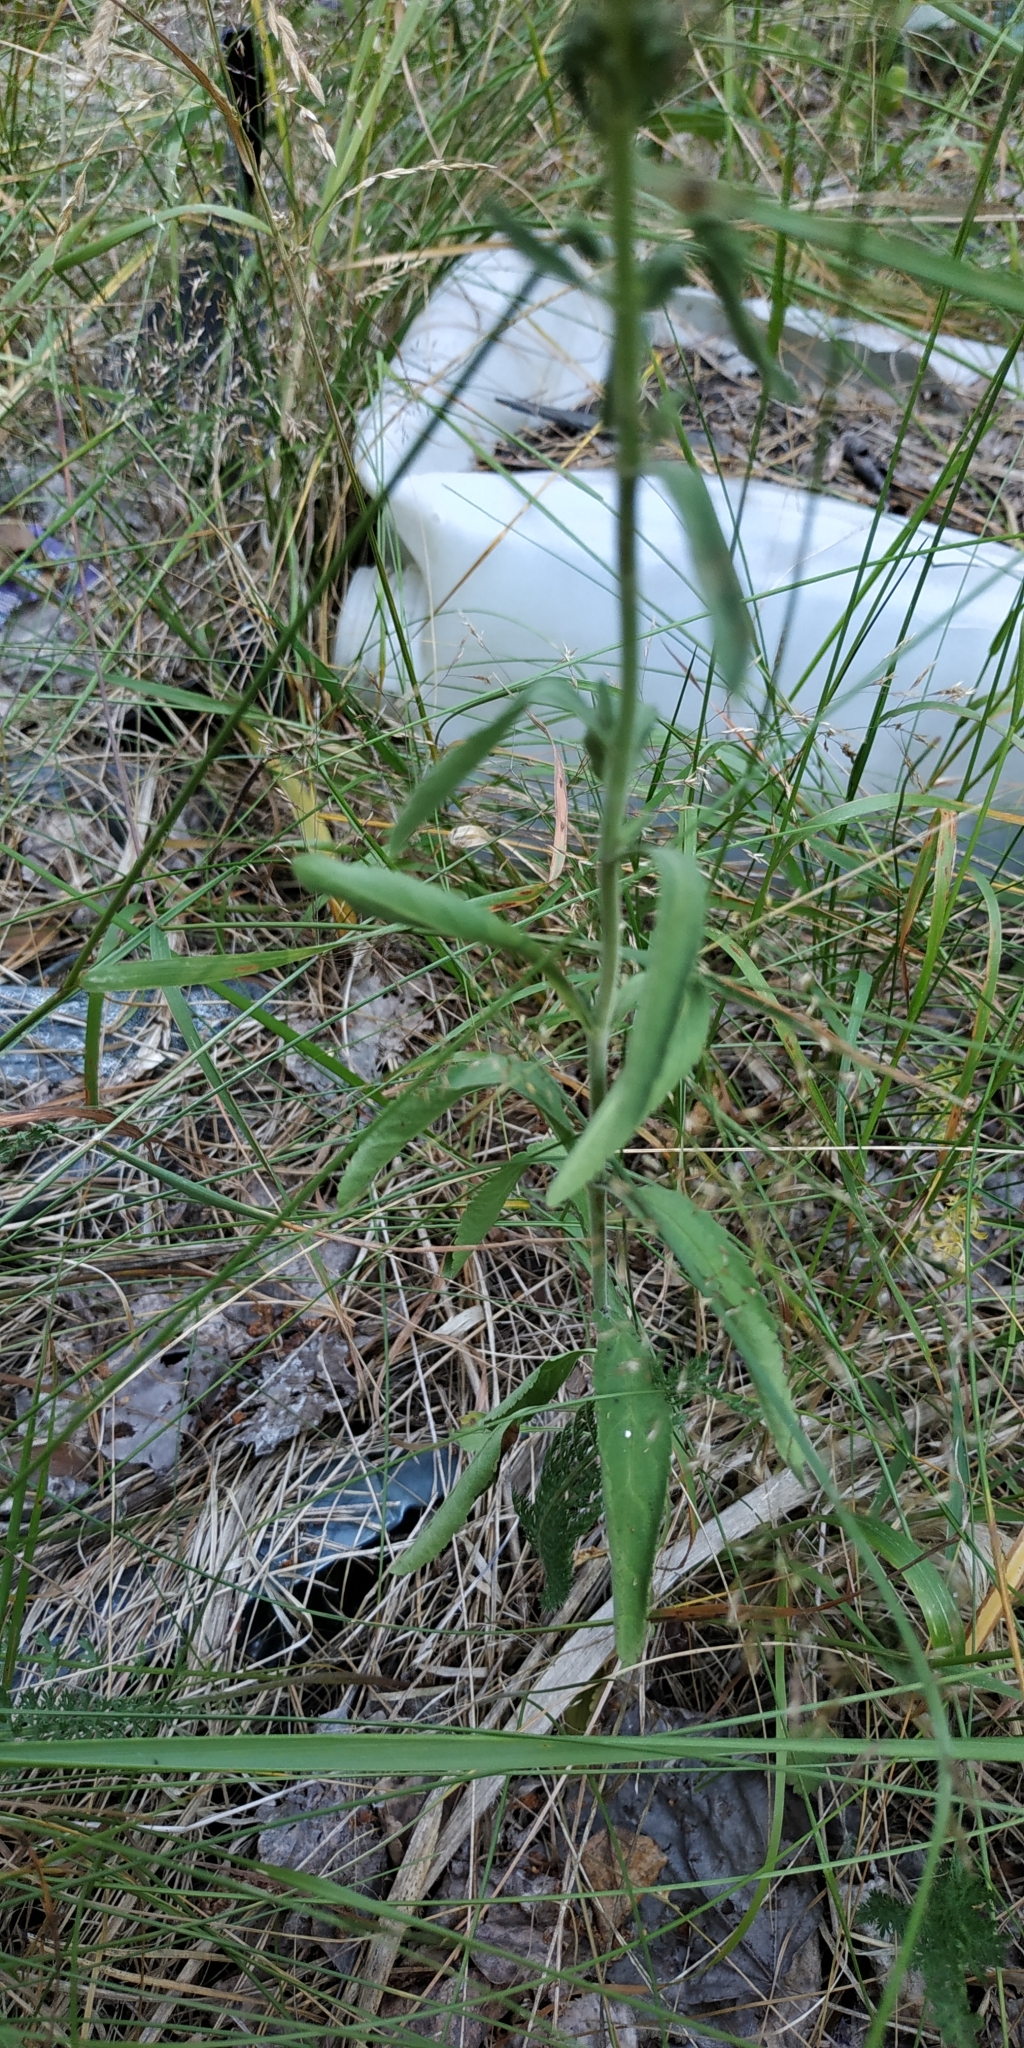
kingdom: Plantae
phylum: Tracheophyta
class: Magnoliopsida
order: Lamiales
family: Plantaginaceae
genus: Veronica
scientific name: Veronica spicata
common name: Spiked speedwell
